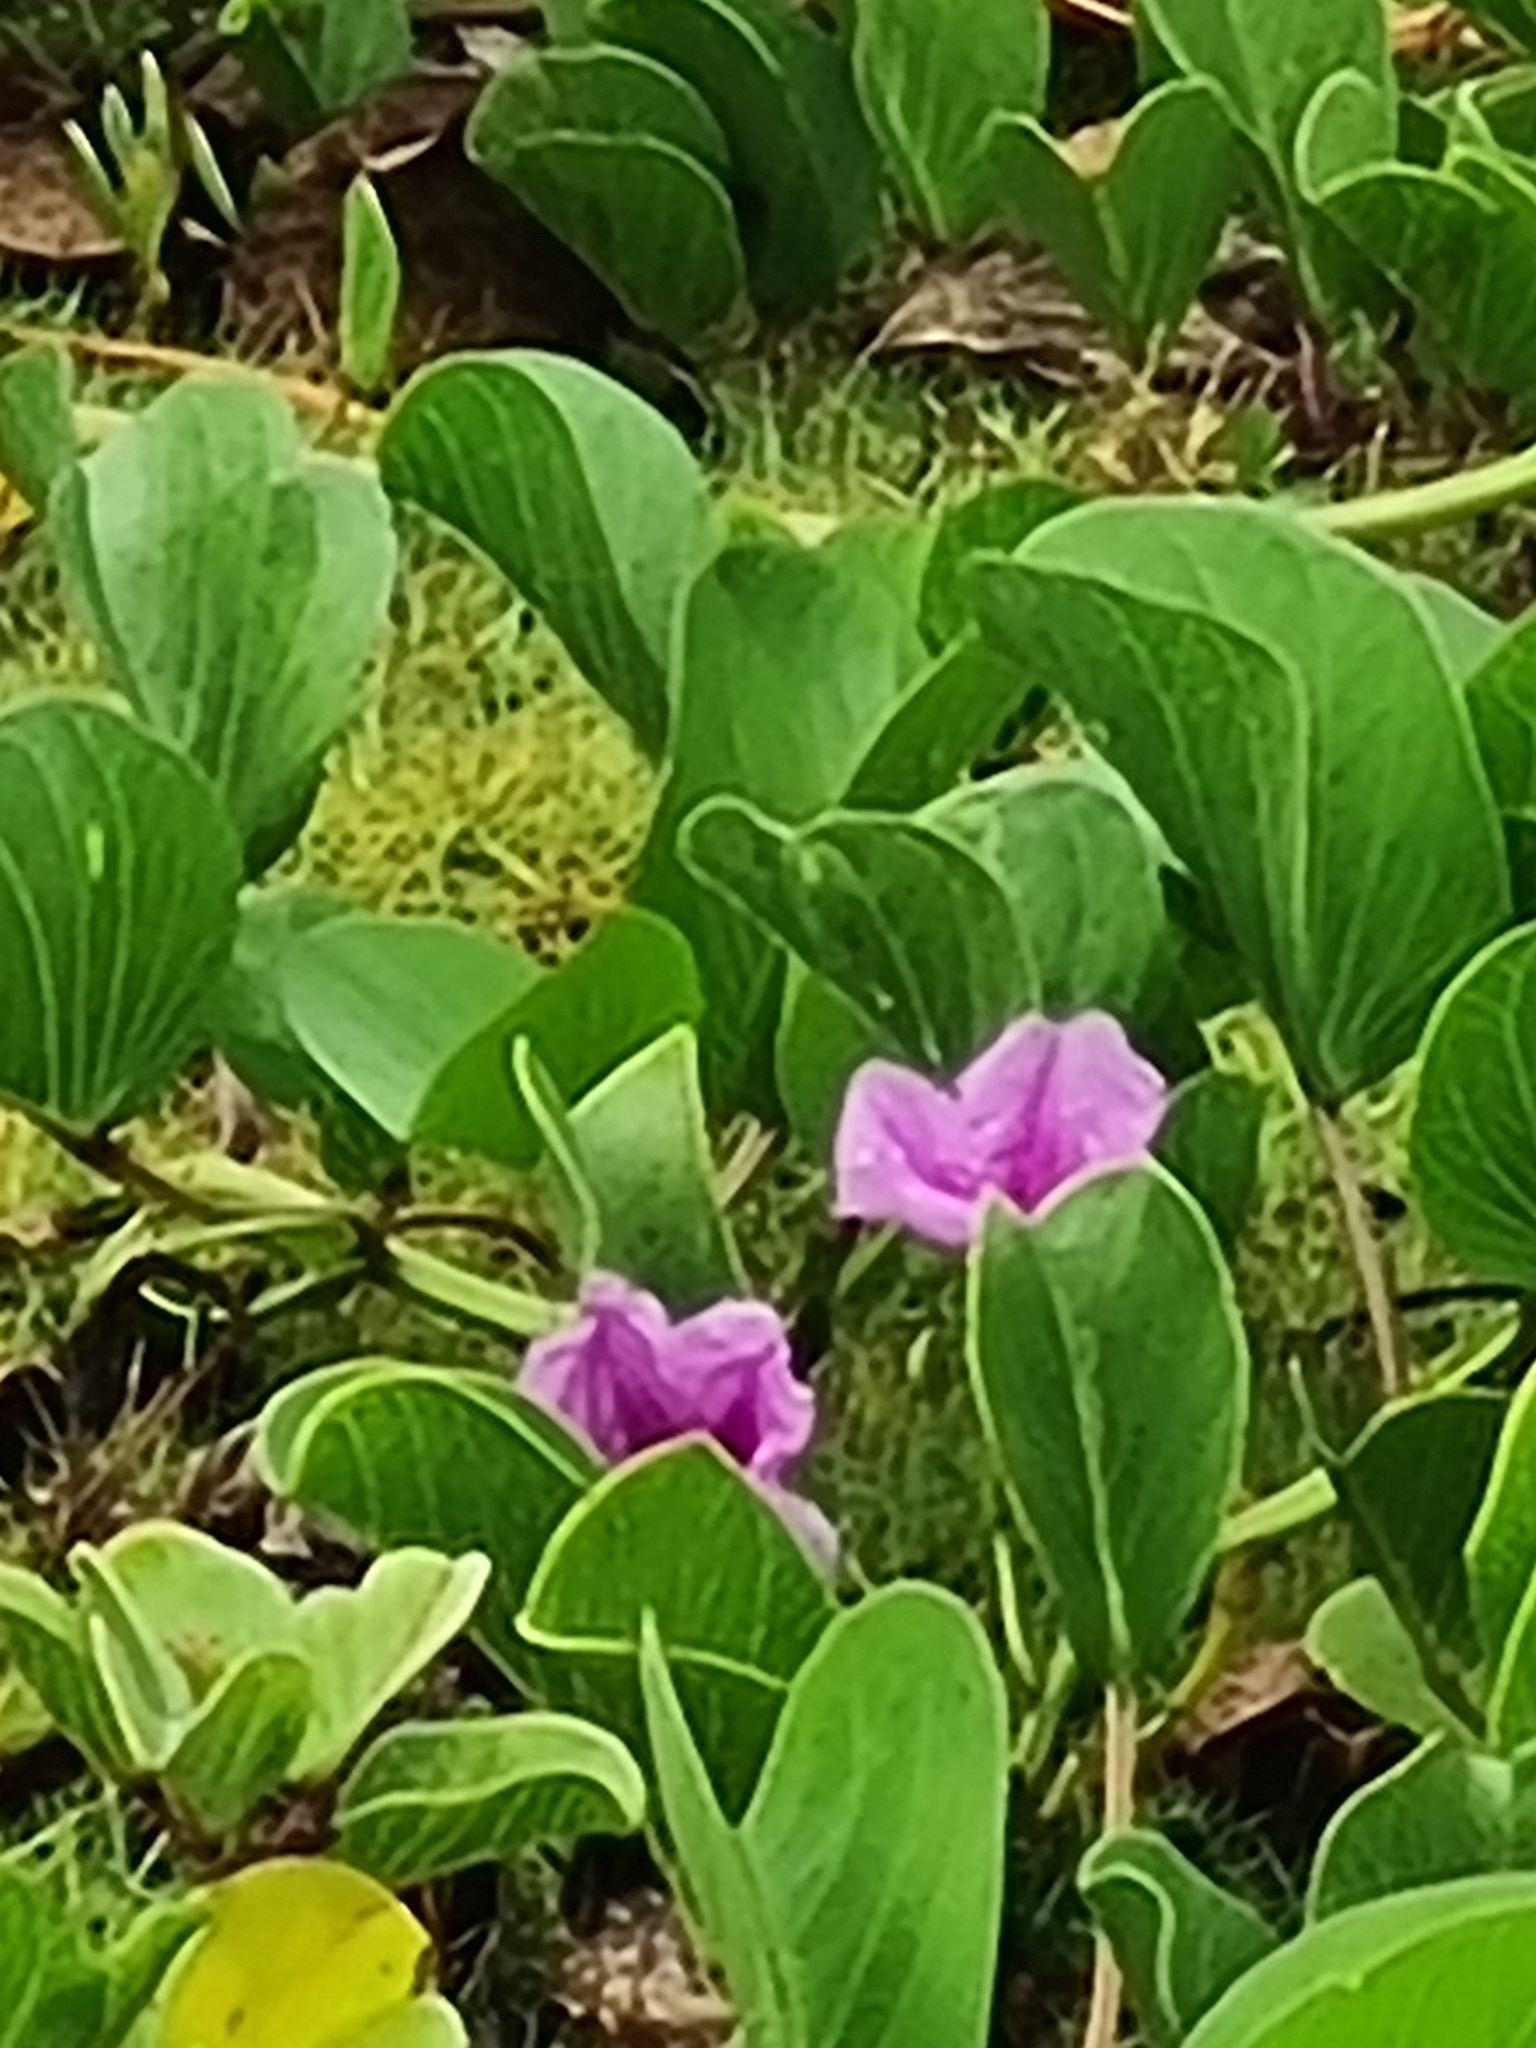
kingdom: Plantae
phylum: Tracheophyta
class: Magnoliopsida
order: Solanales
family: Convolvulaceae
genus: Ipomoea
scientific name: Ipomoea pes-caprae
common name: Beach morning glory
